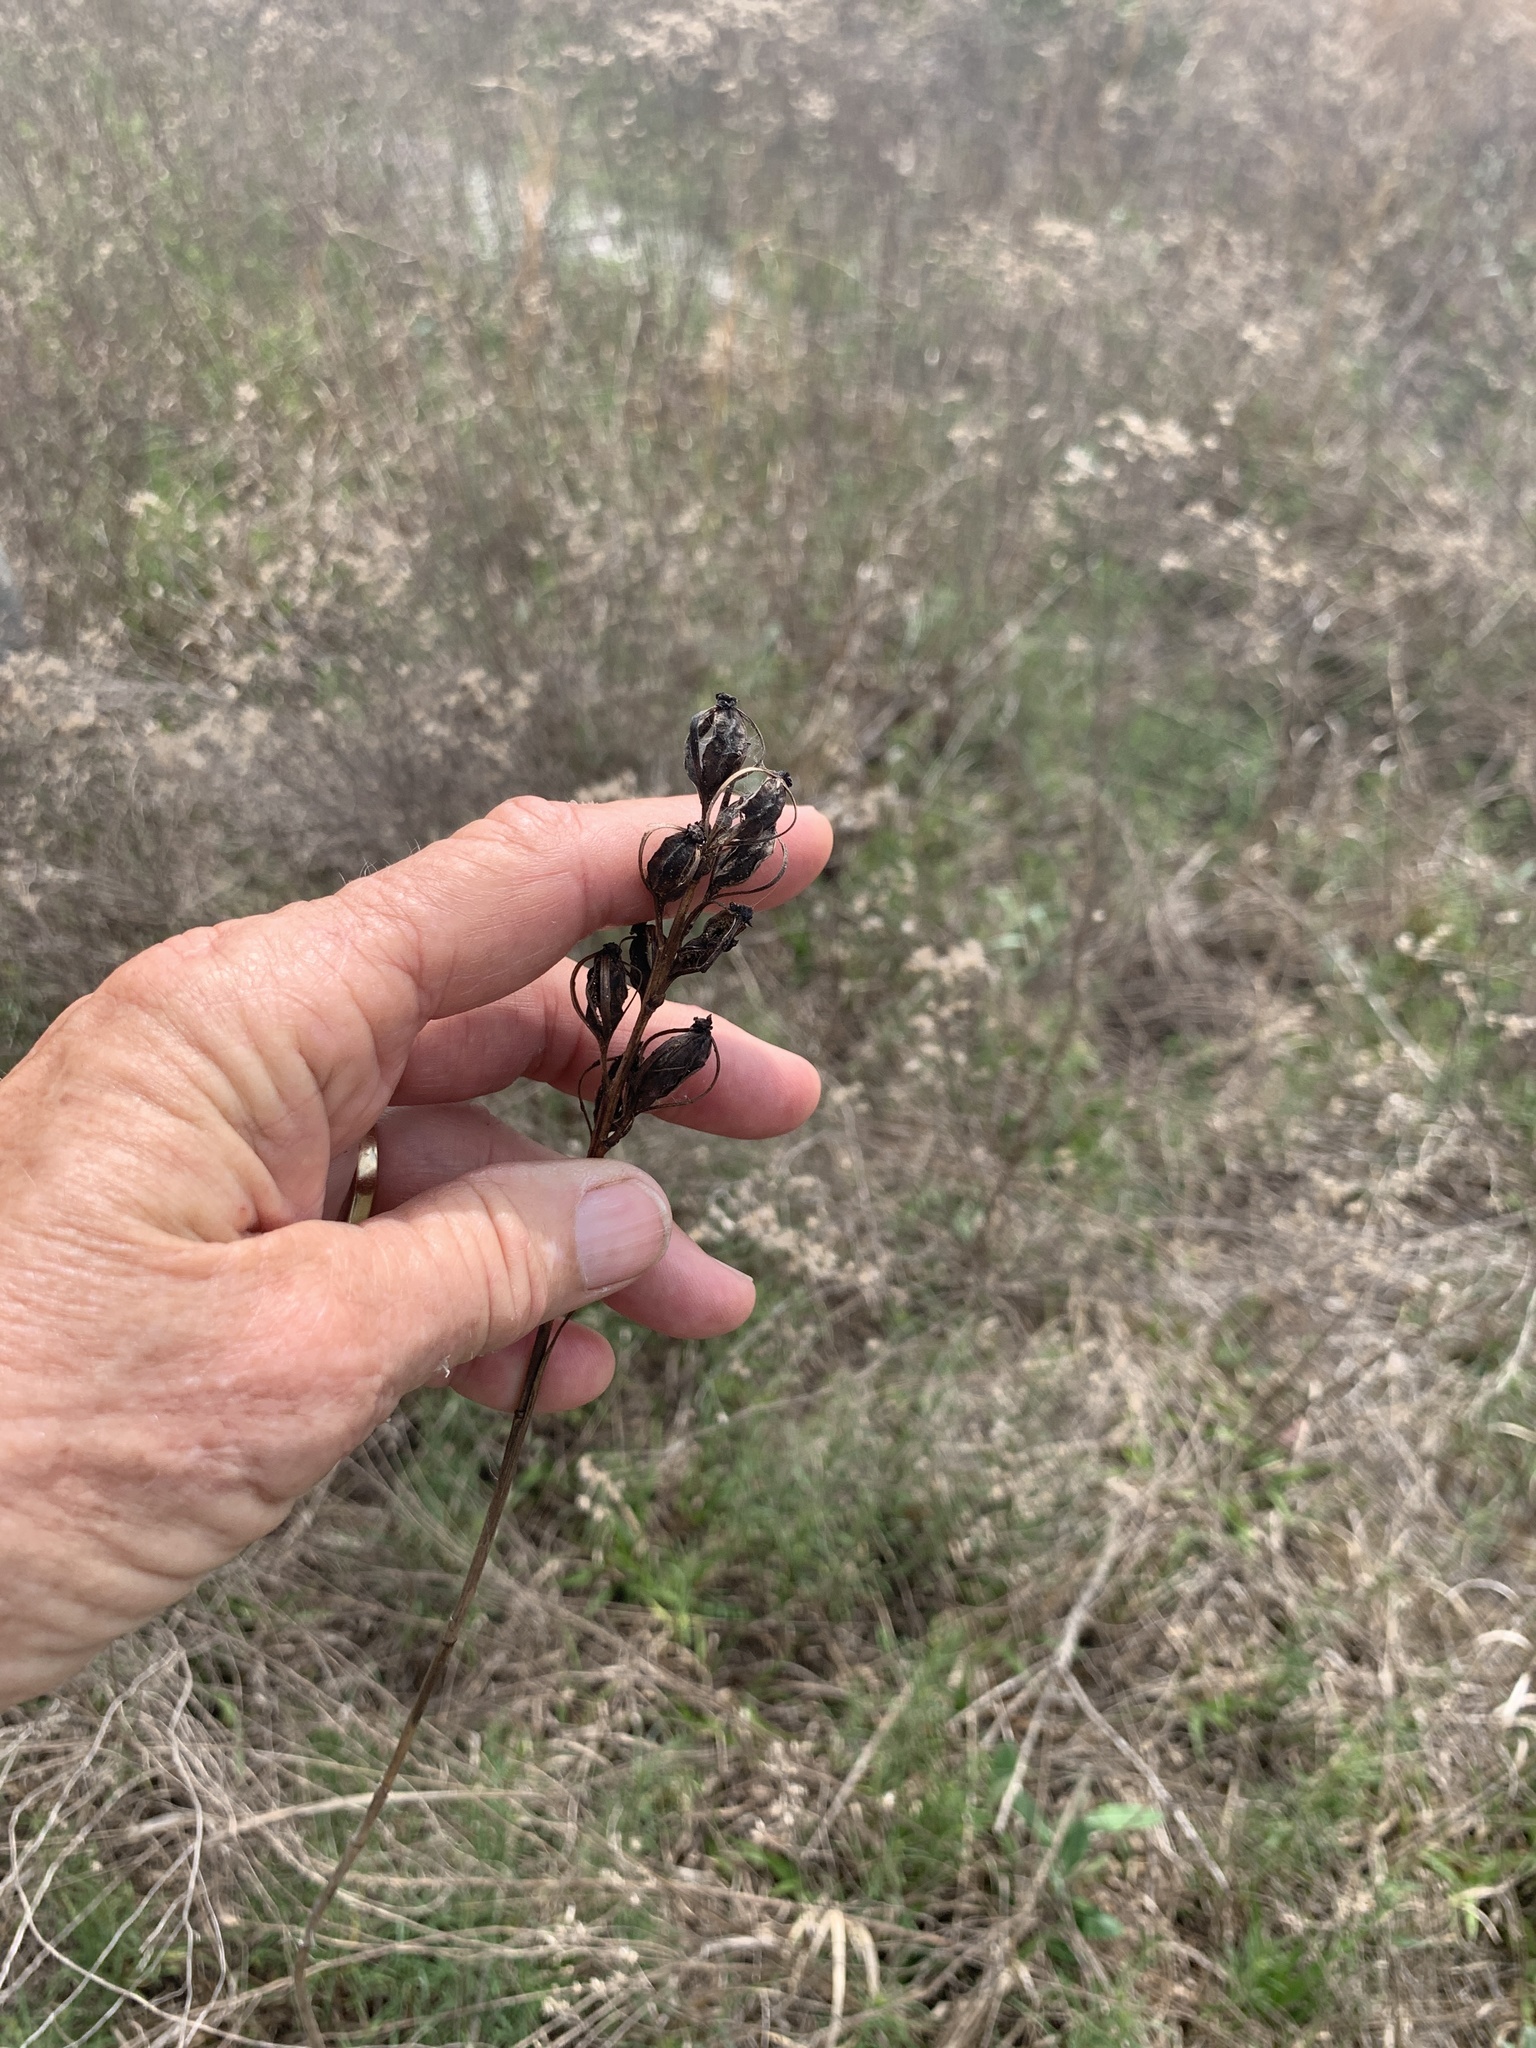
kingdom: Plantae
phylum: Tracheophyta
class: Liliopsida
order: Asparagales
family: Orchidaceae
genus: Eulophia
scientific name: Eulophia ecristata
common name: Giant orchid
